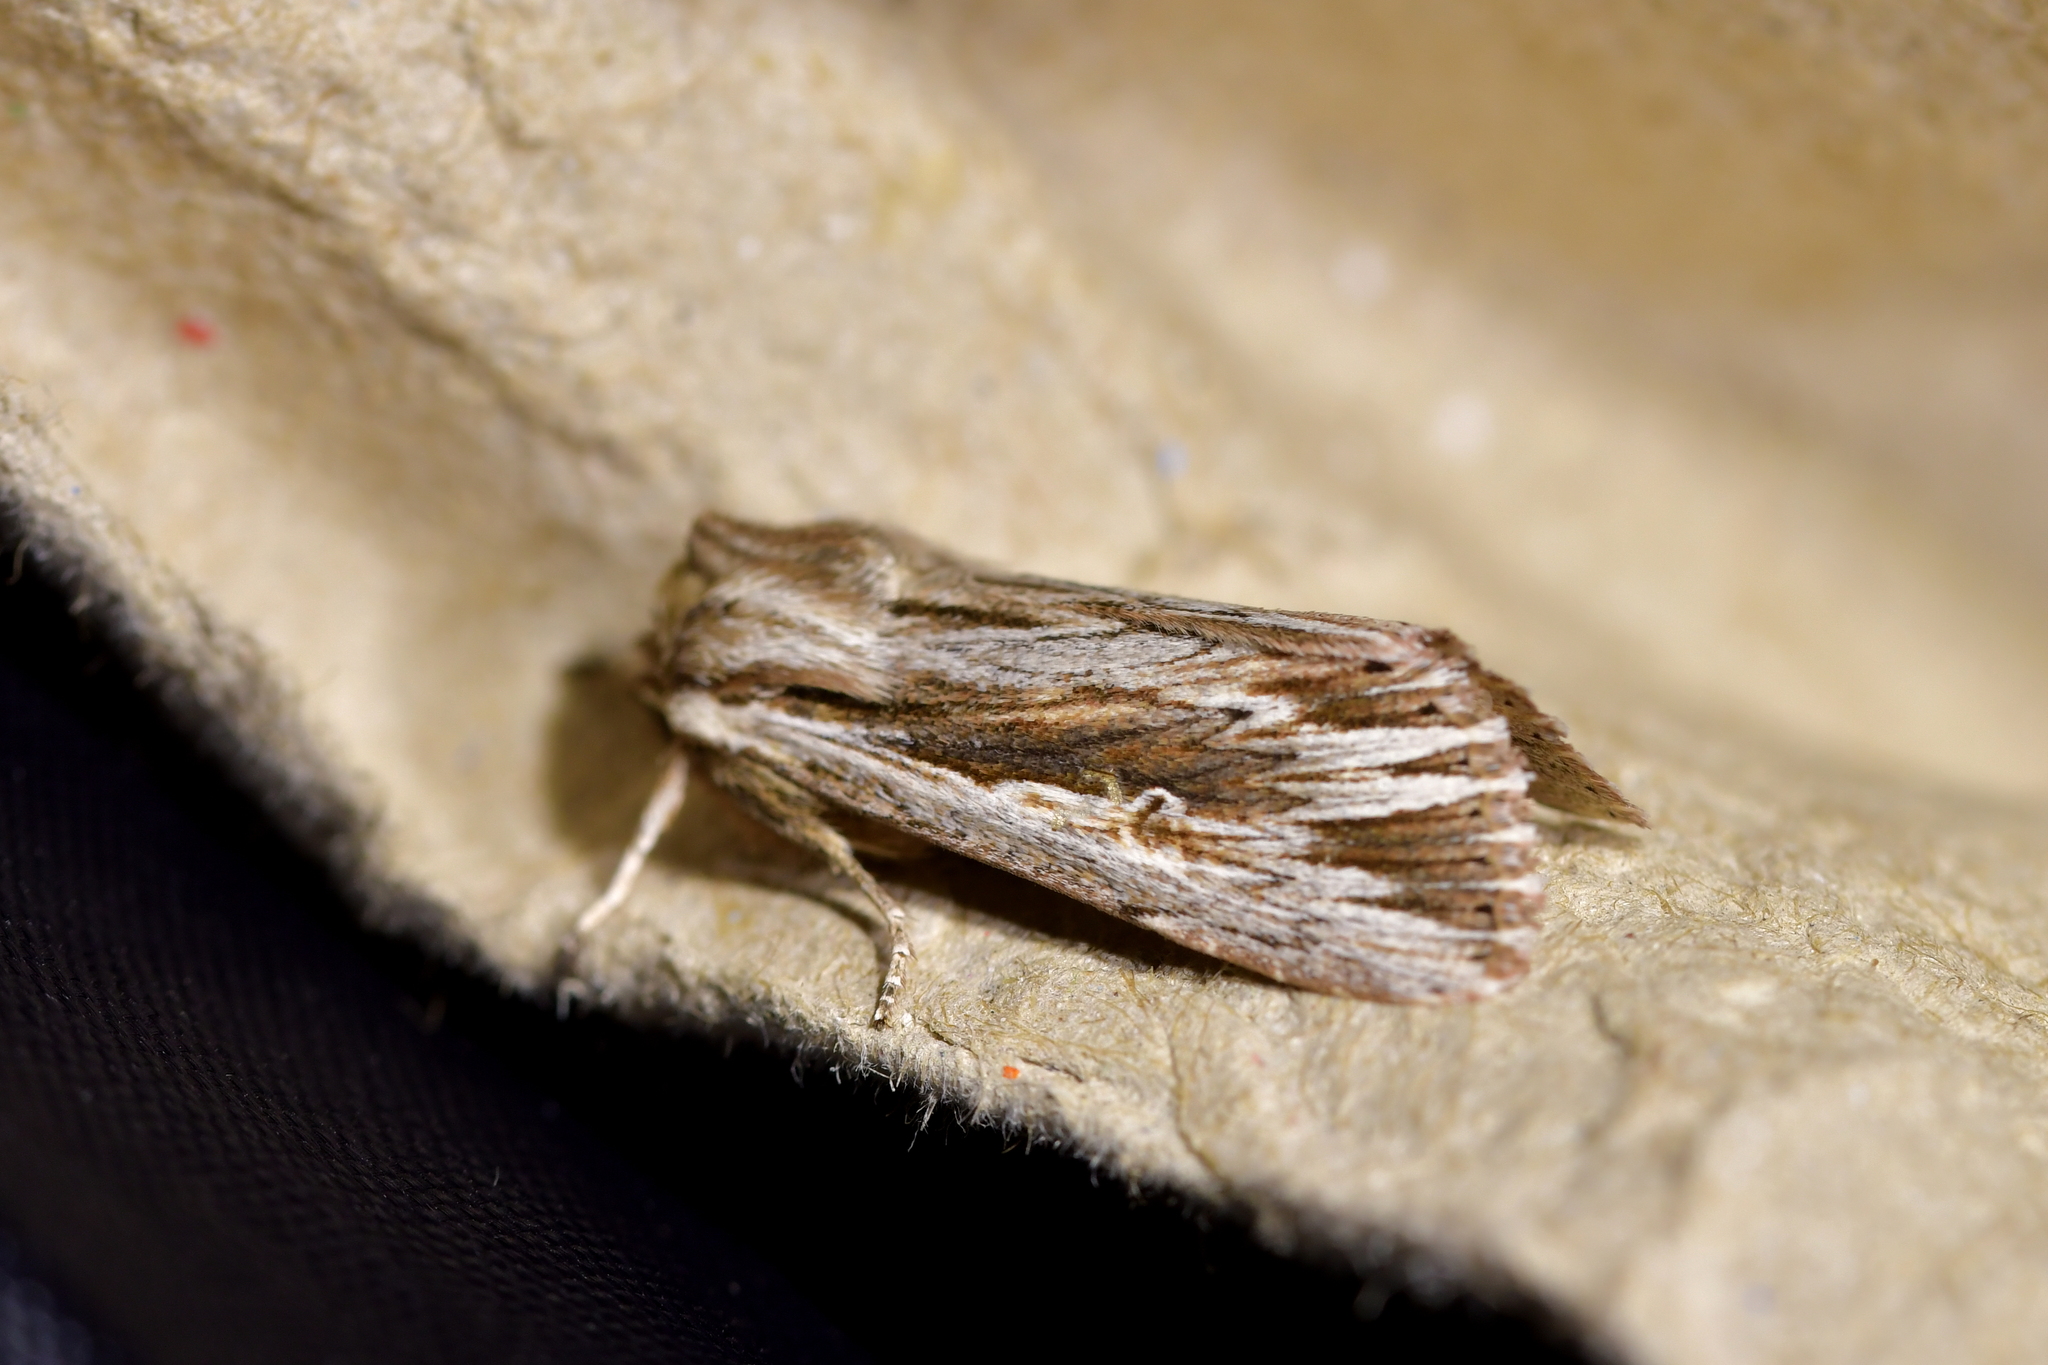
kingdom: Animalia
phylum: Arthropoda
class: Insecta
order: Lepidoptera
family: Noctuidae
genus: Persectania
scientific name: Persectania aversa
